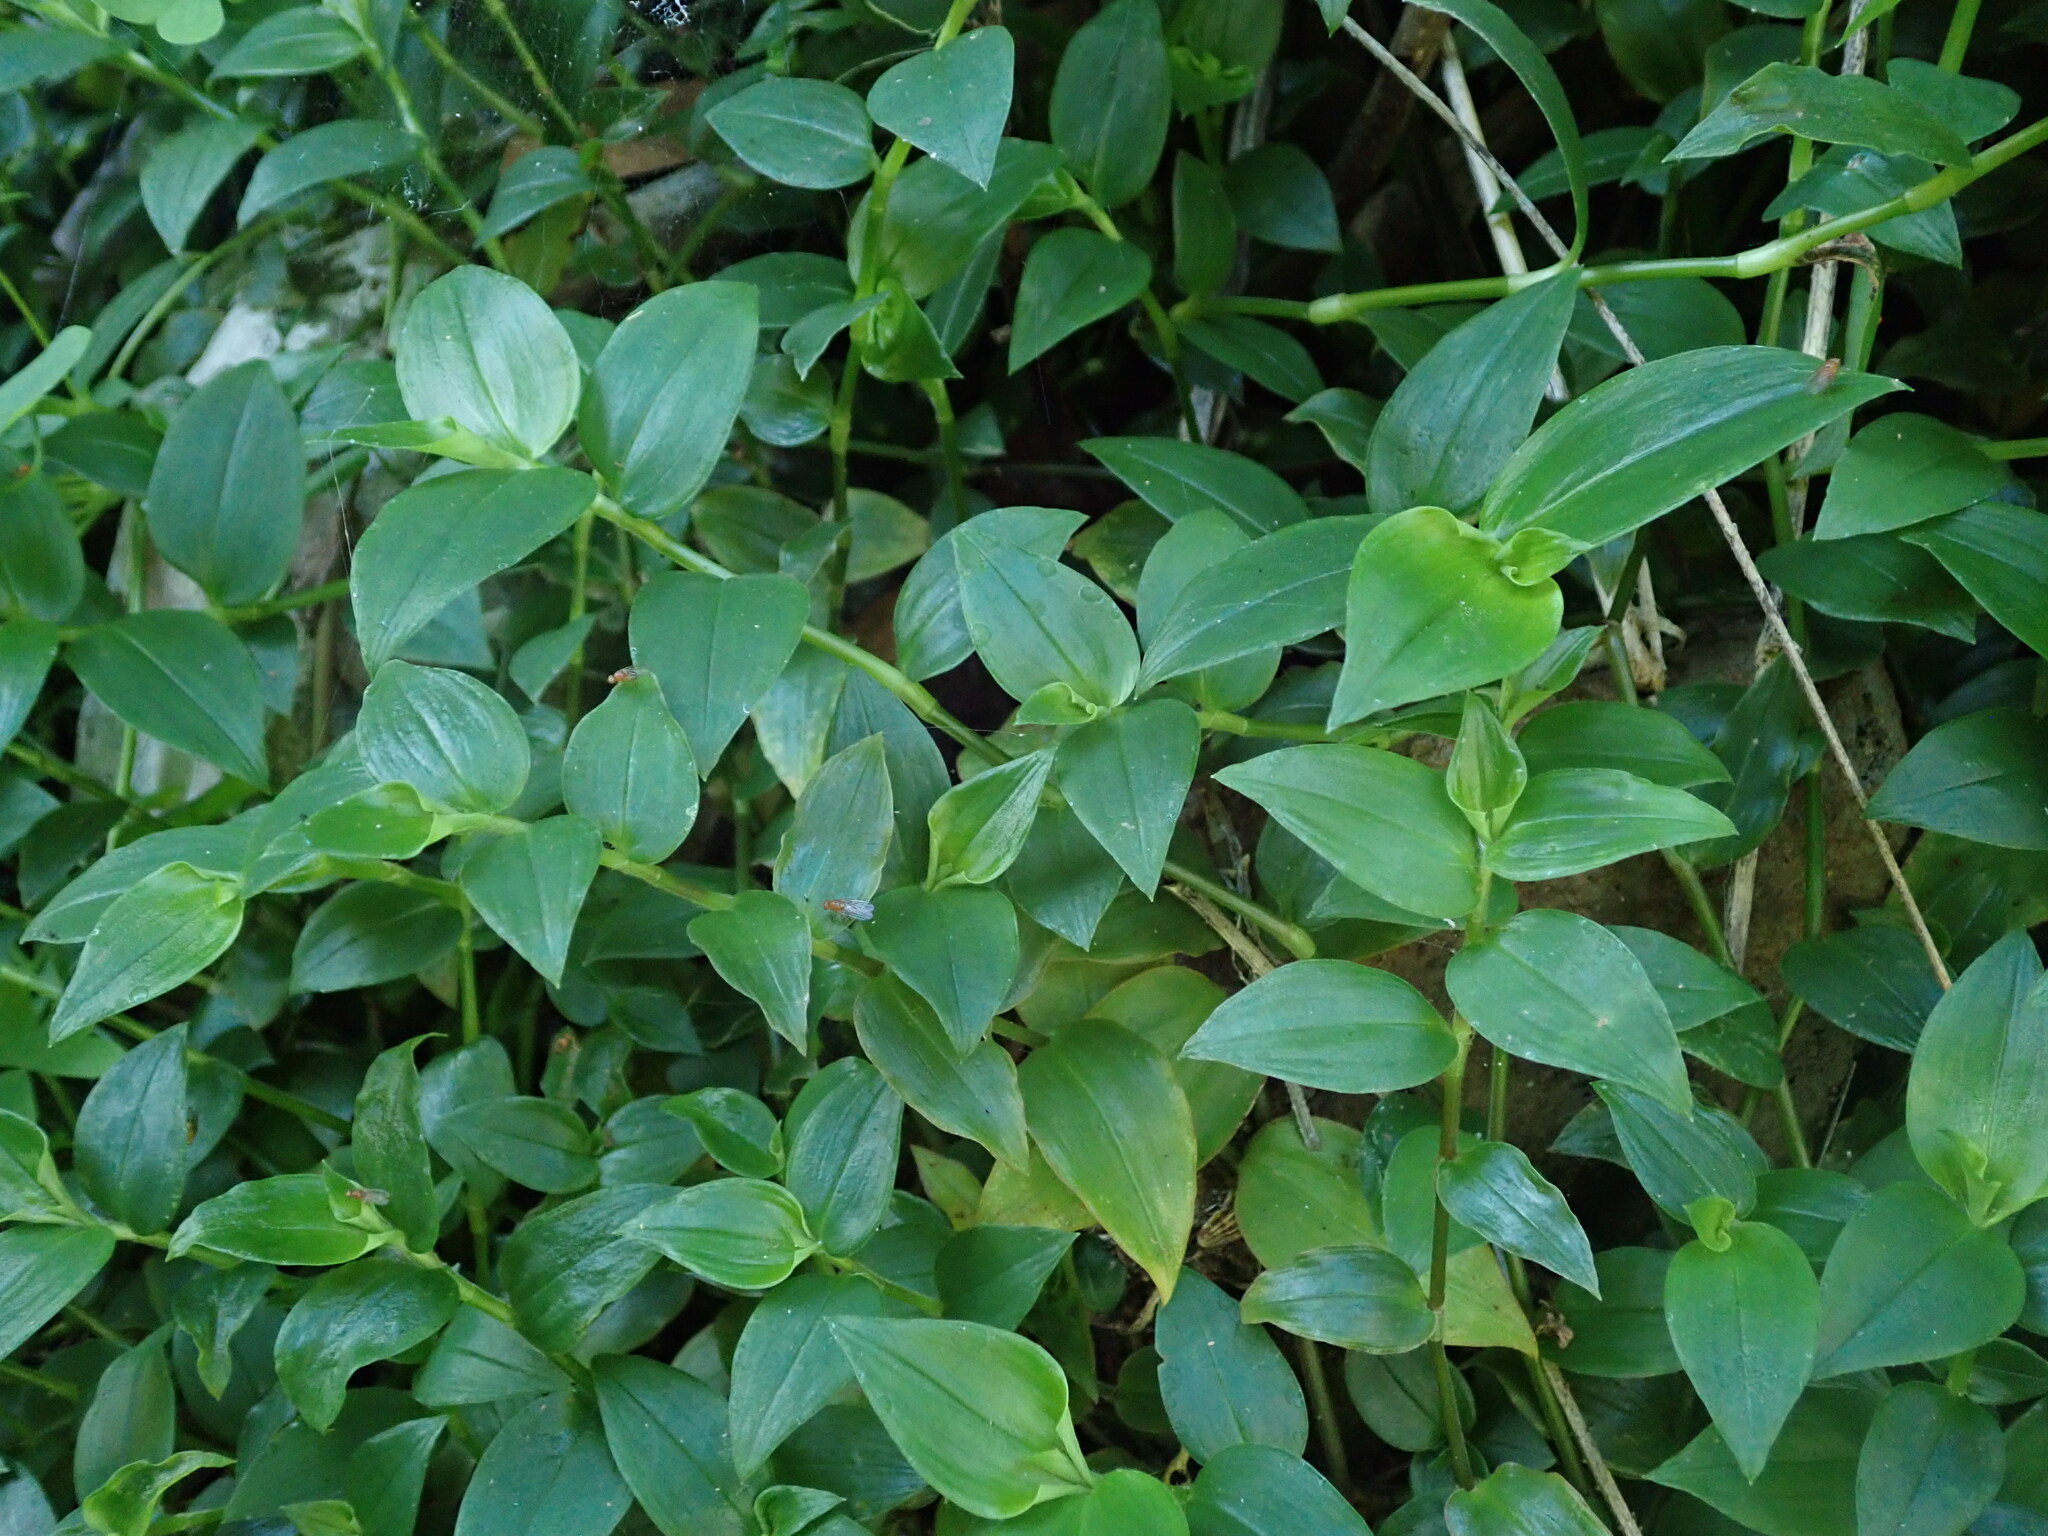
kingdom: Plantae
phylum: Tracheophyta
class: Liliopsida
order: Commelinales
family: Commelinaceae
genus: Tradescantia
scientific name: Tradescantia fluminensis
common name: Wandering-jew
